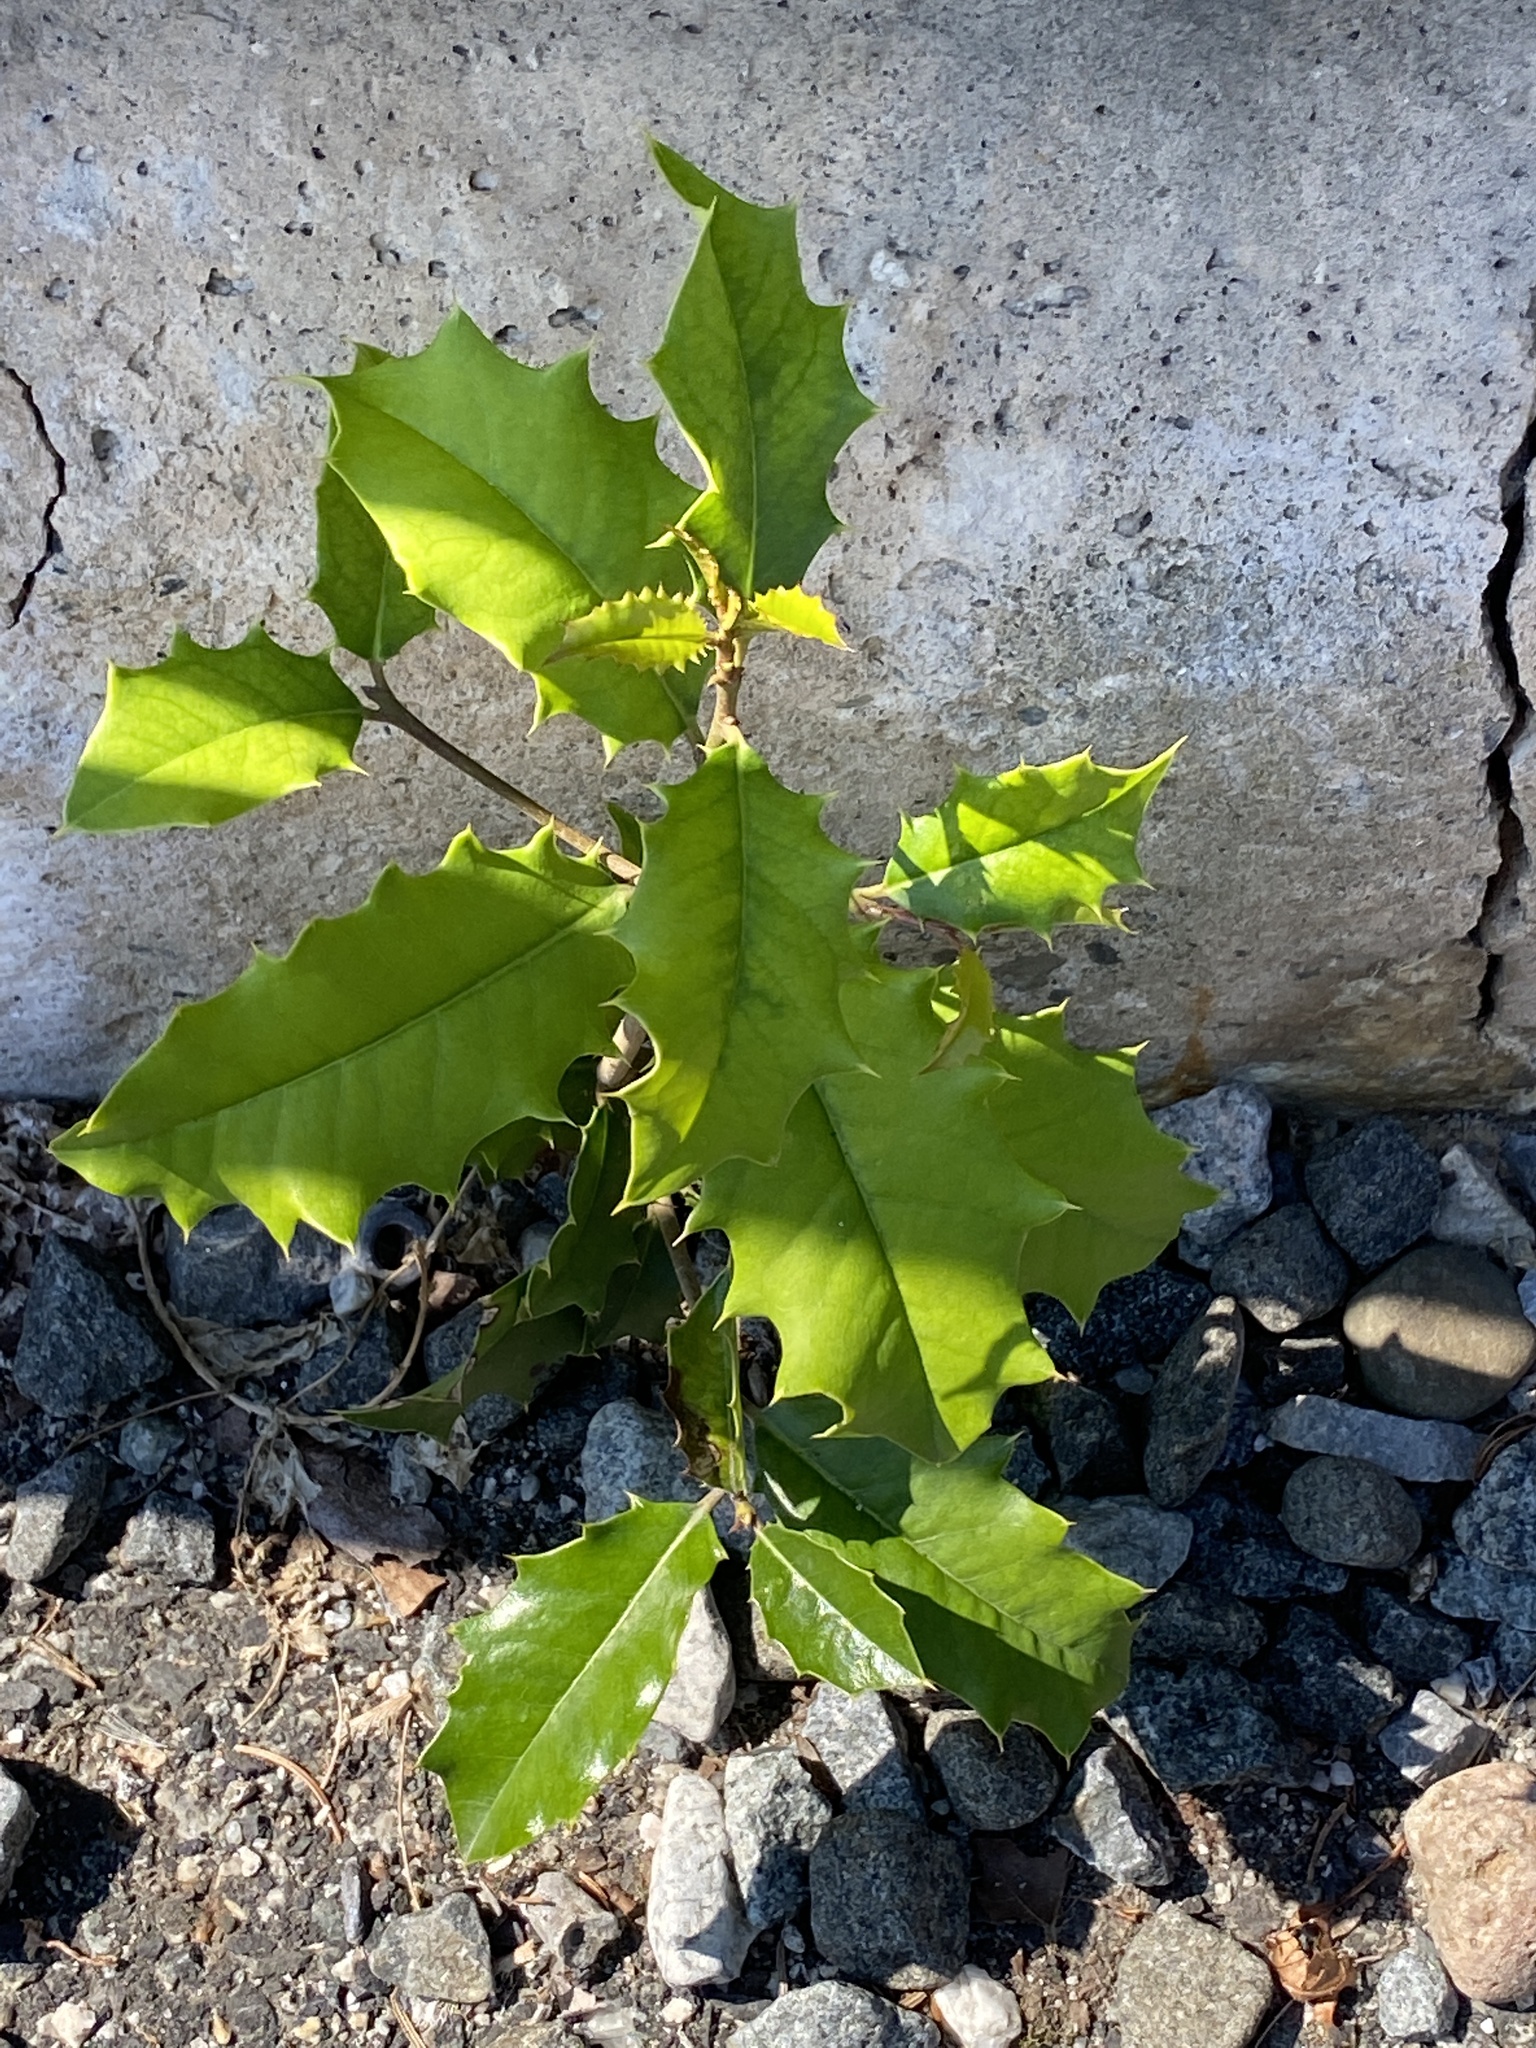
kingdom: Plantae
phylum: Tracheophyta
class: Magnoliopsida
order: Aquifoliales
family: Aquifoliaceae
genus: Ilex
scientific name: Ilex opaca
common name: American holly
